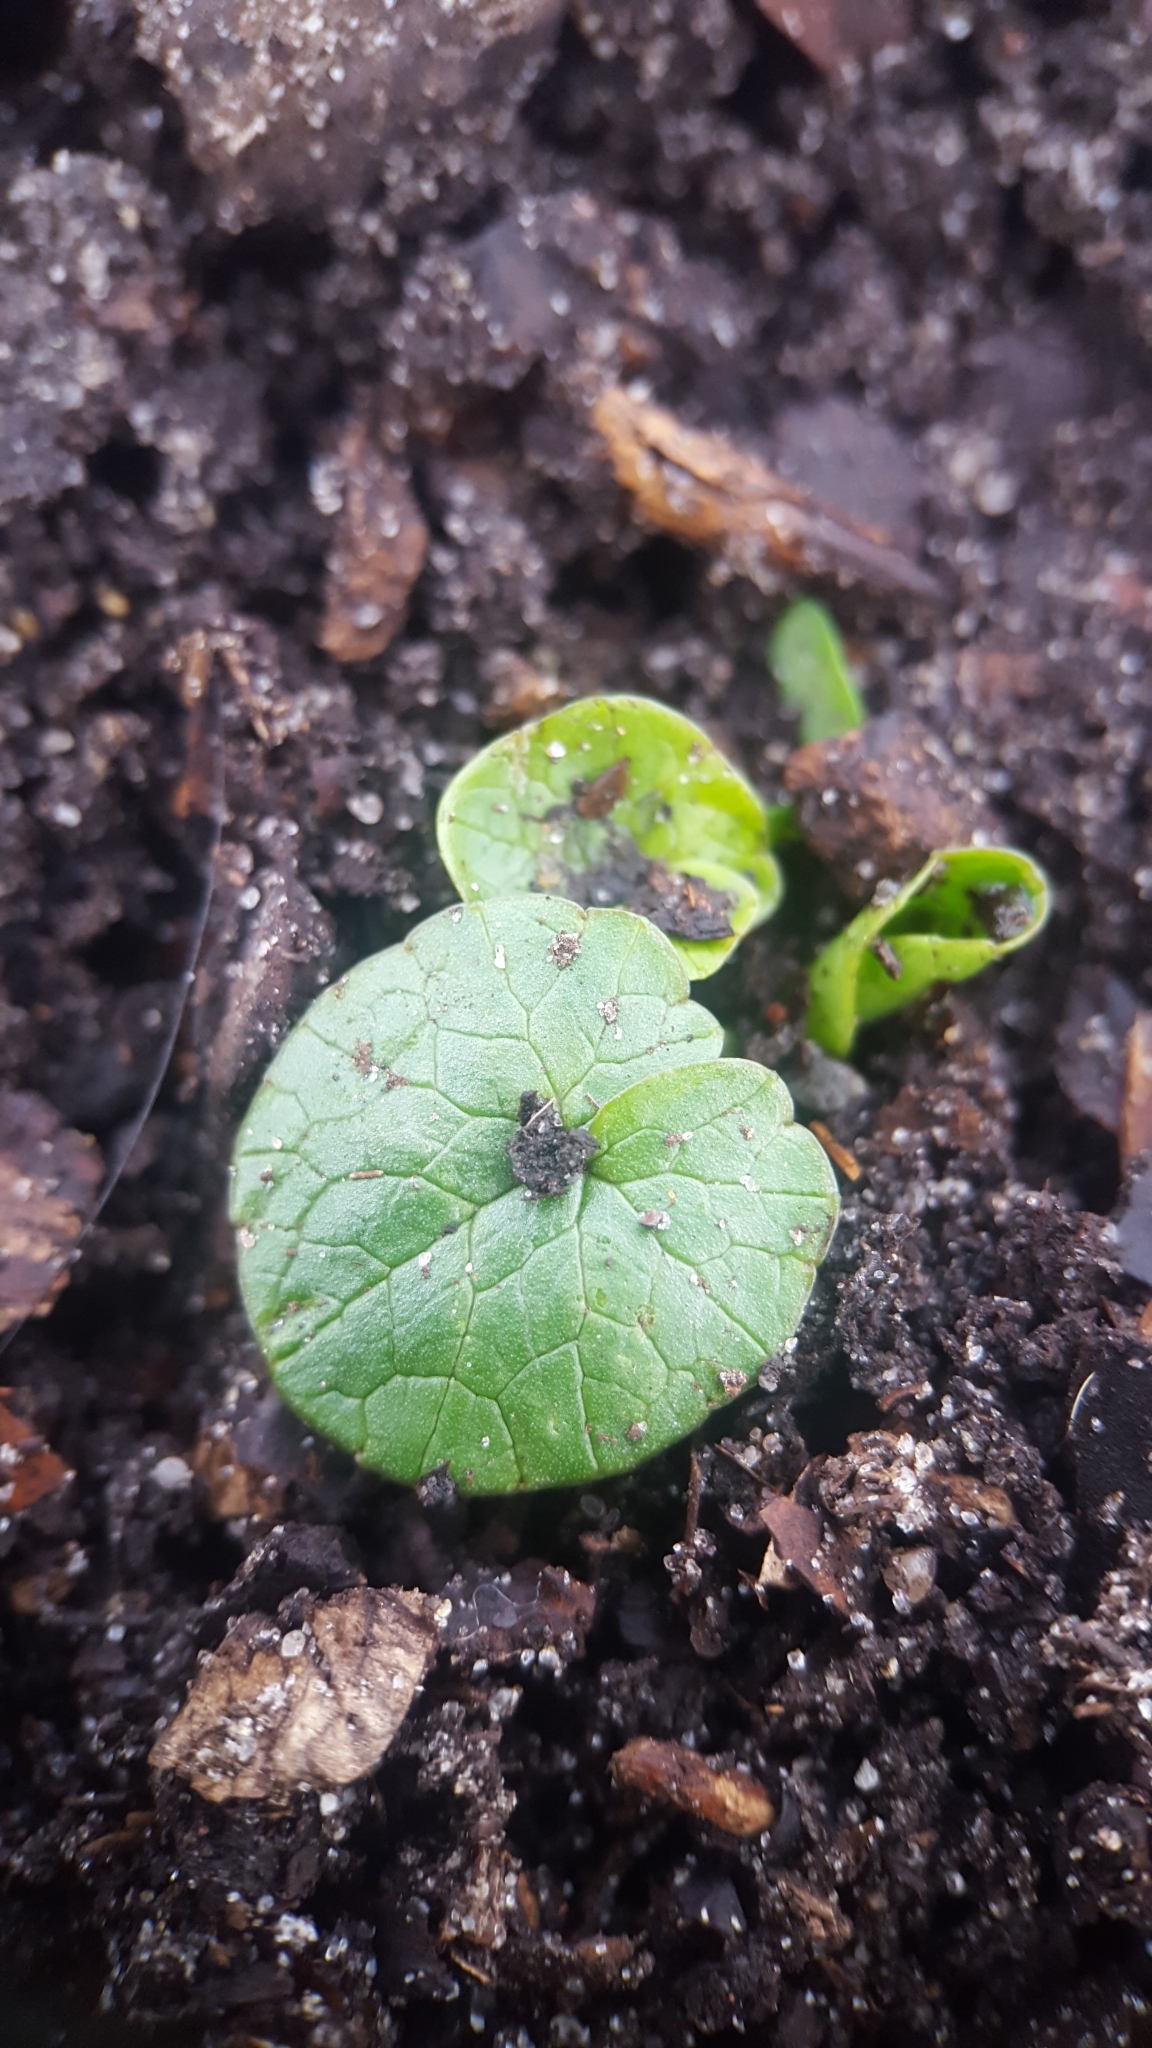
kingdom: Plantae
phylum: Tracheophyta
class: Magnoliopsida
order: Ranunculales
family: Ranunculaceae
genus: Ficaria
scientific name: Ficaria verna
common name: Lesser celandine
